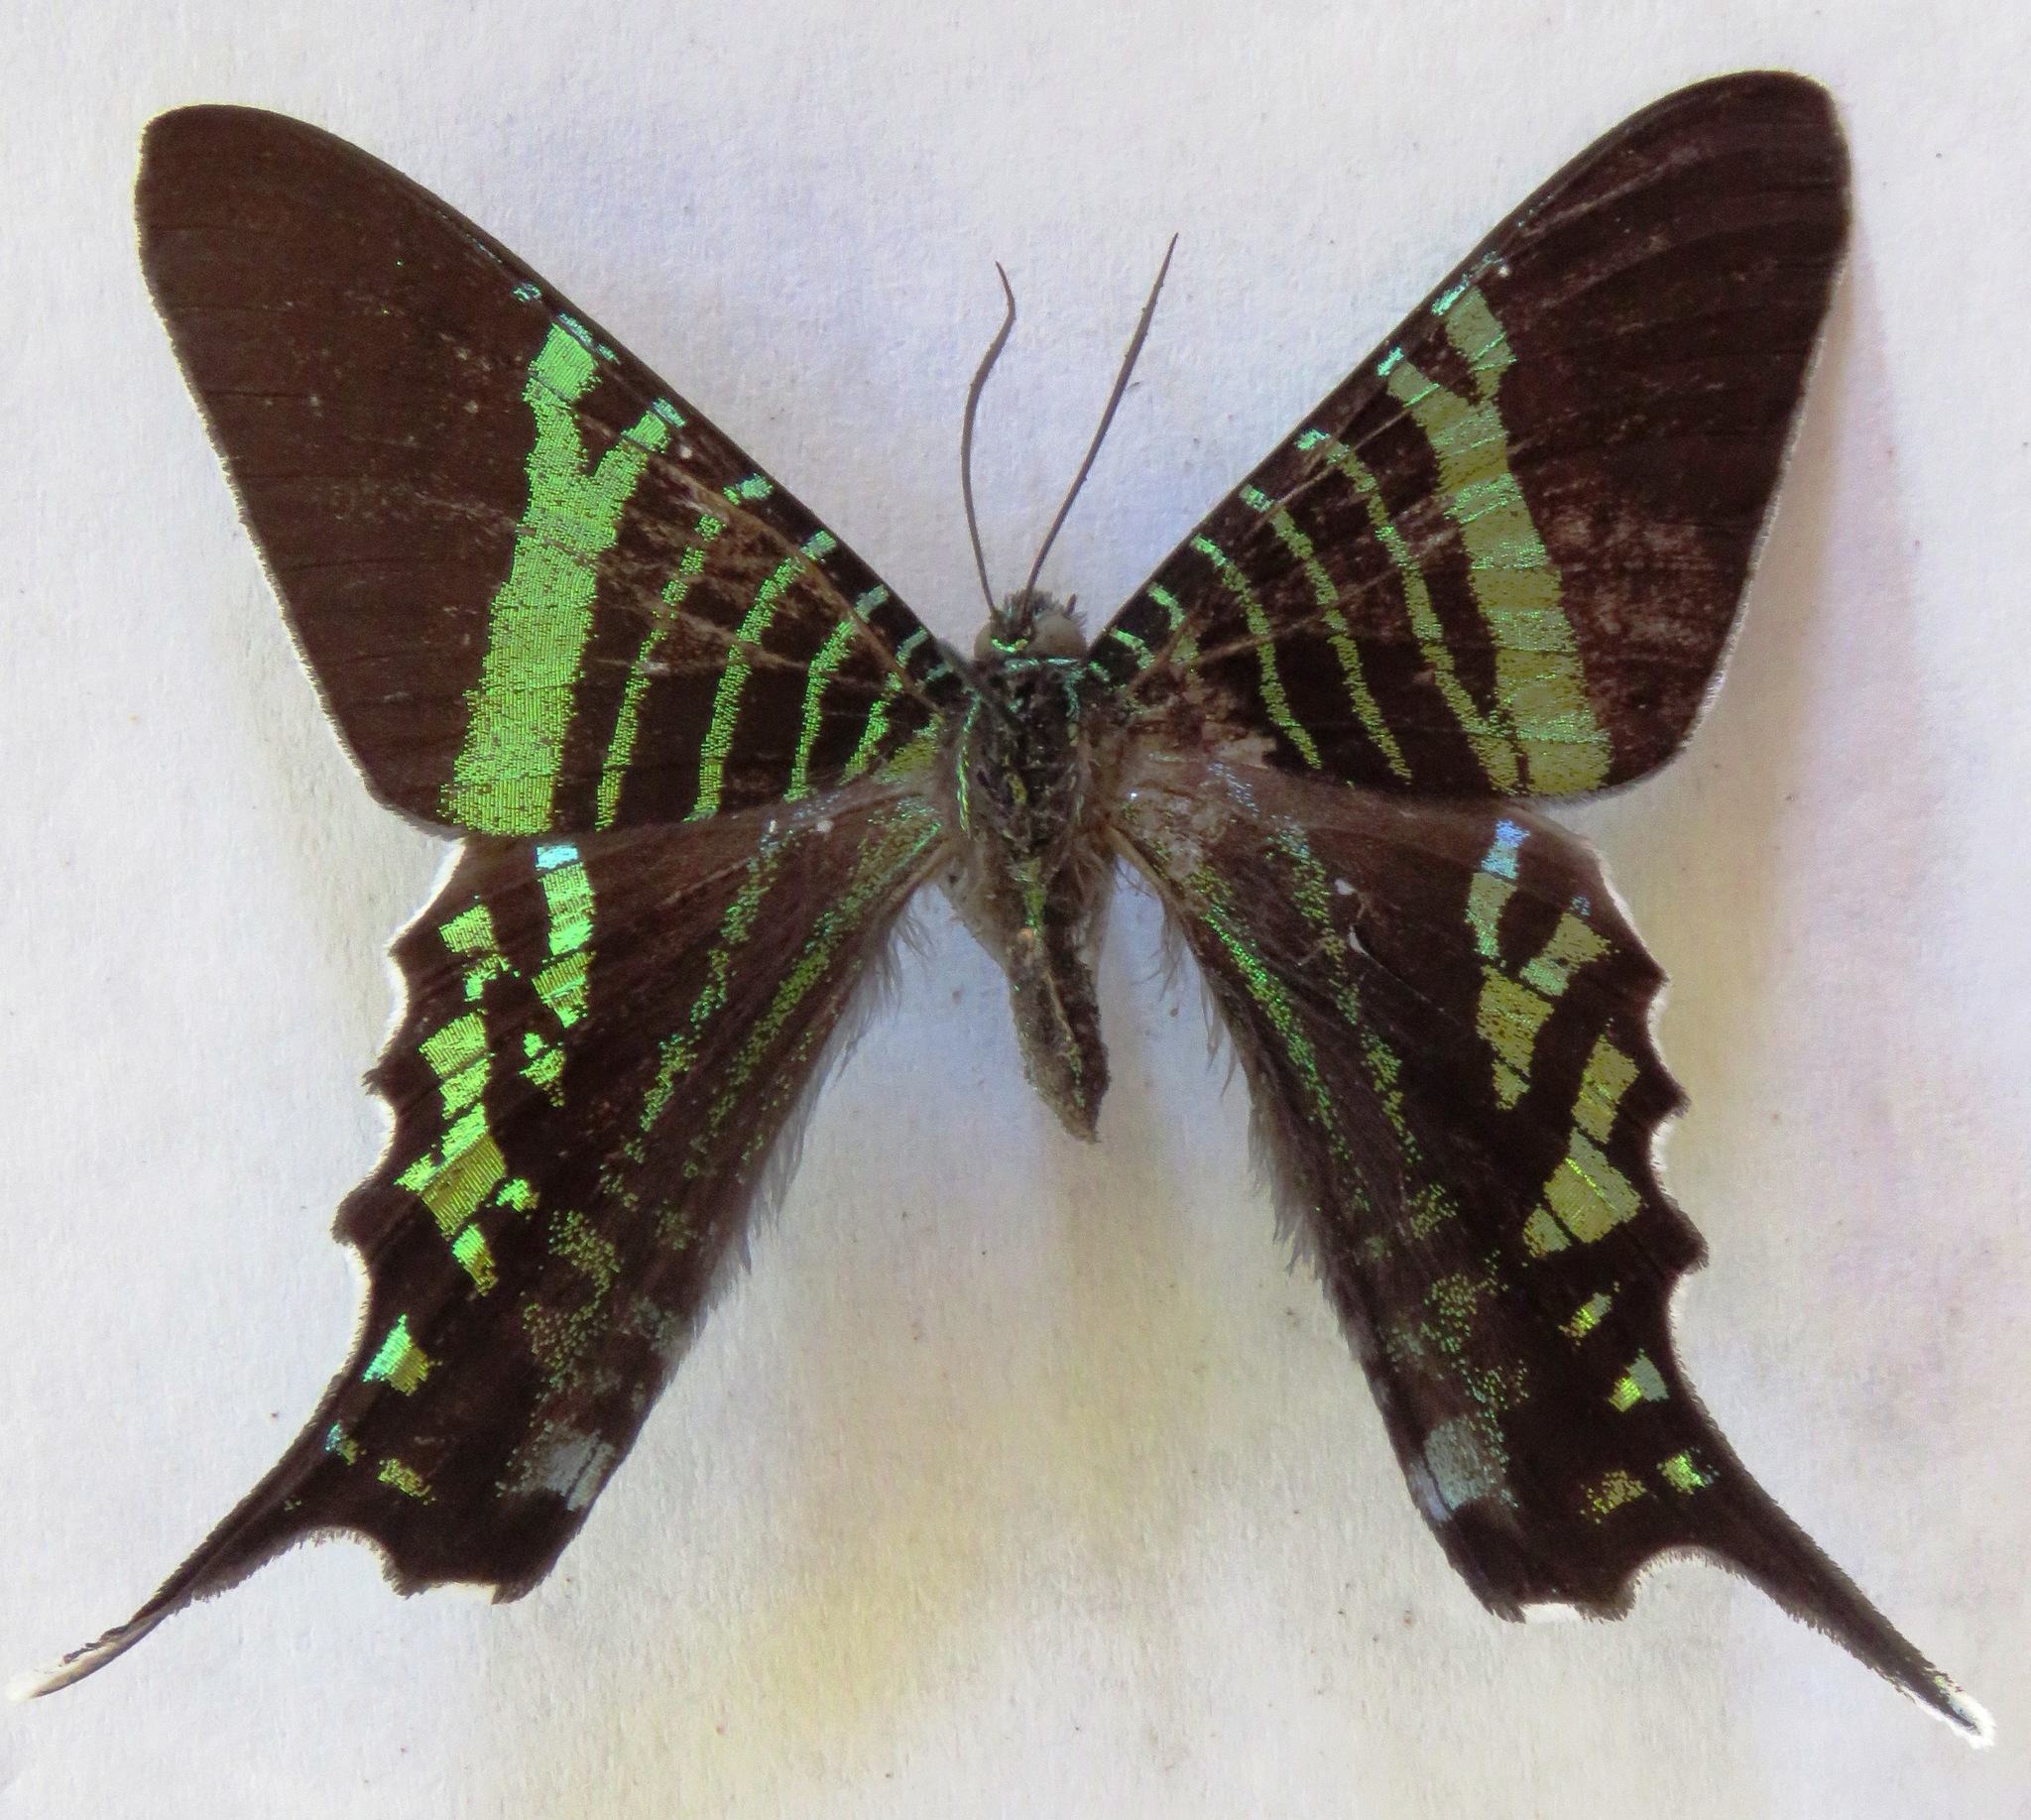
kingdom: Animalia
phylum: Arthropoda
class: Insecta
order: Lepidoptera
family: Uraniidae
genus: Urania
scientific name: Urania fulgens
